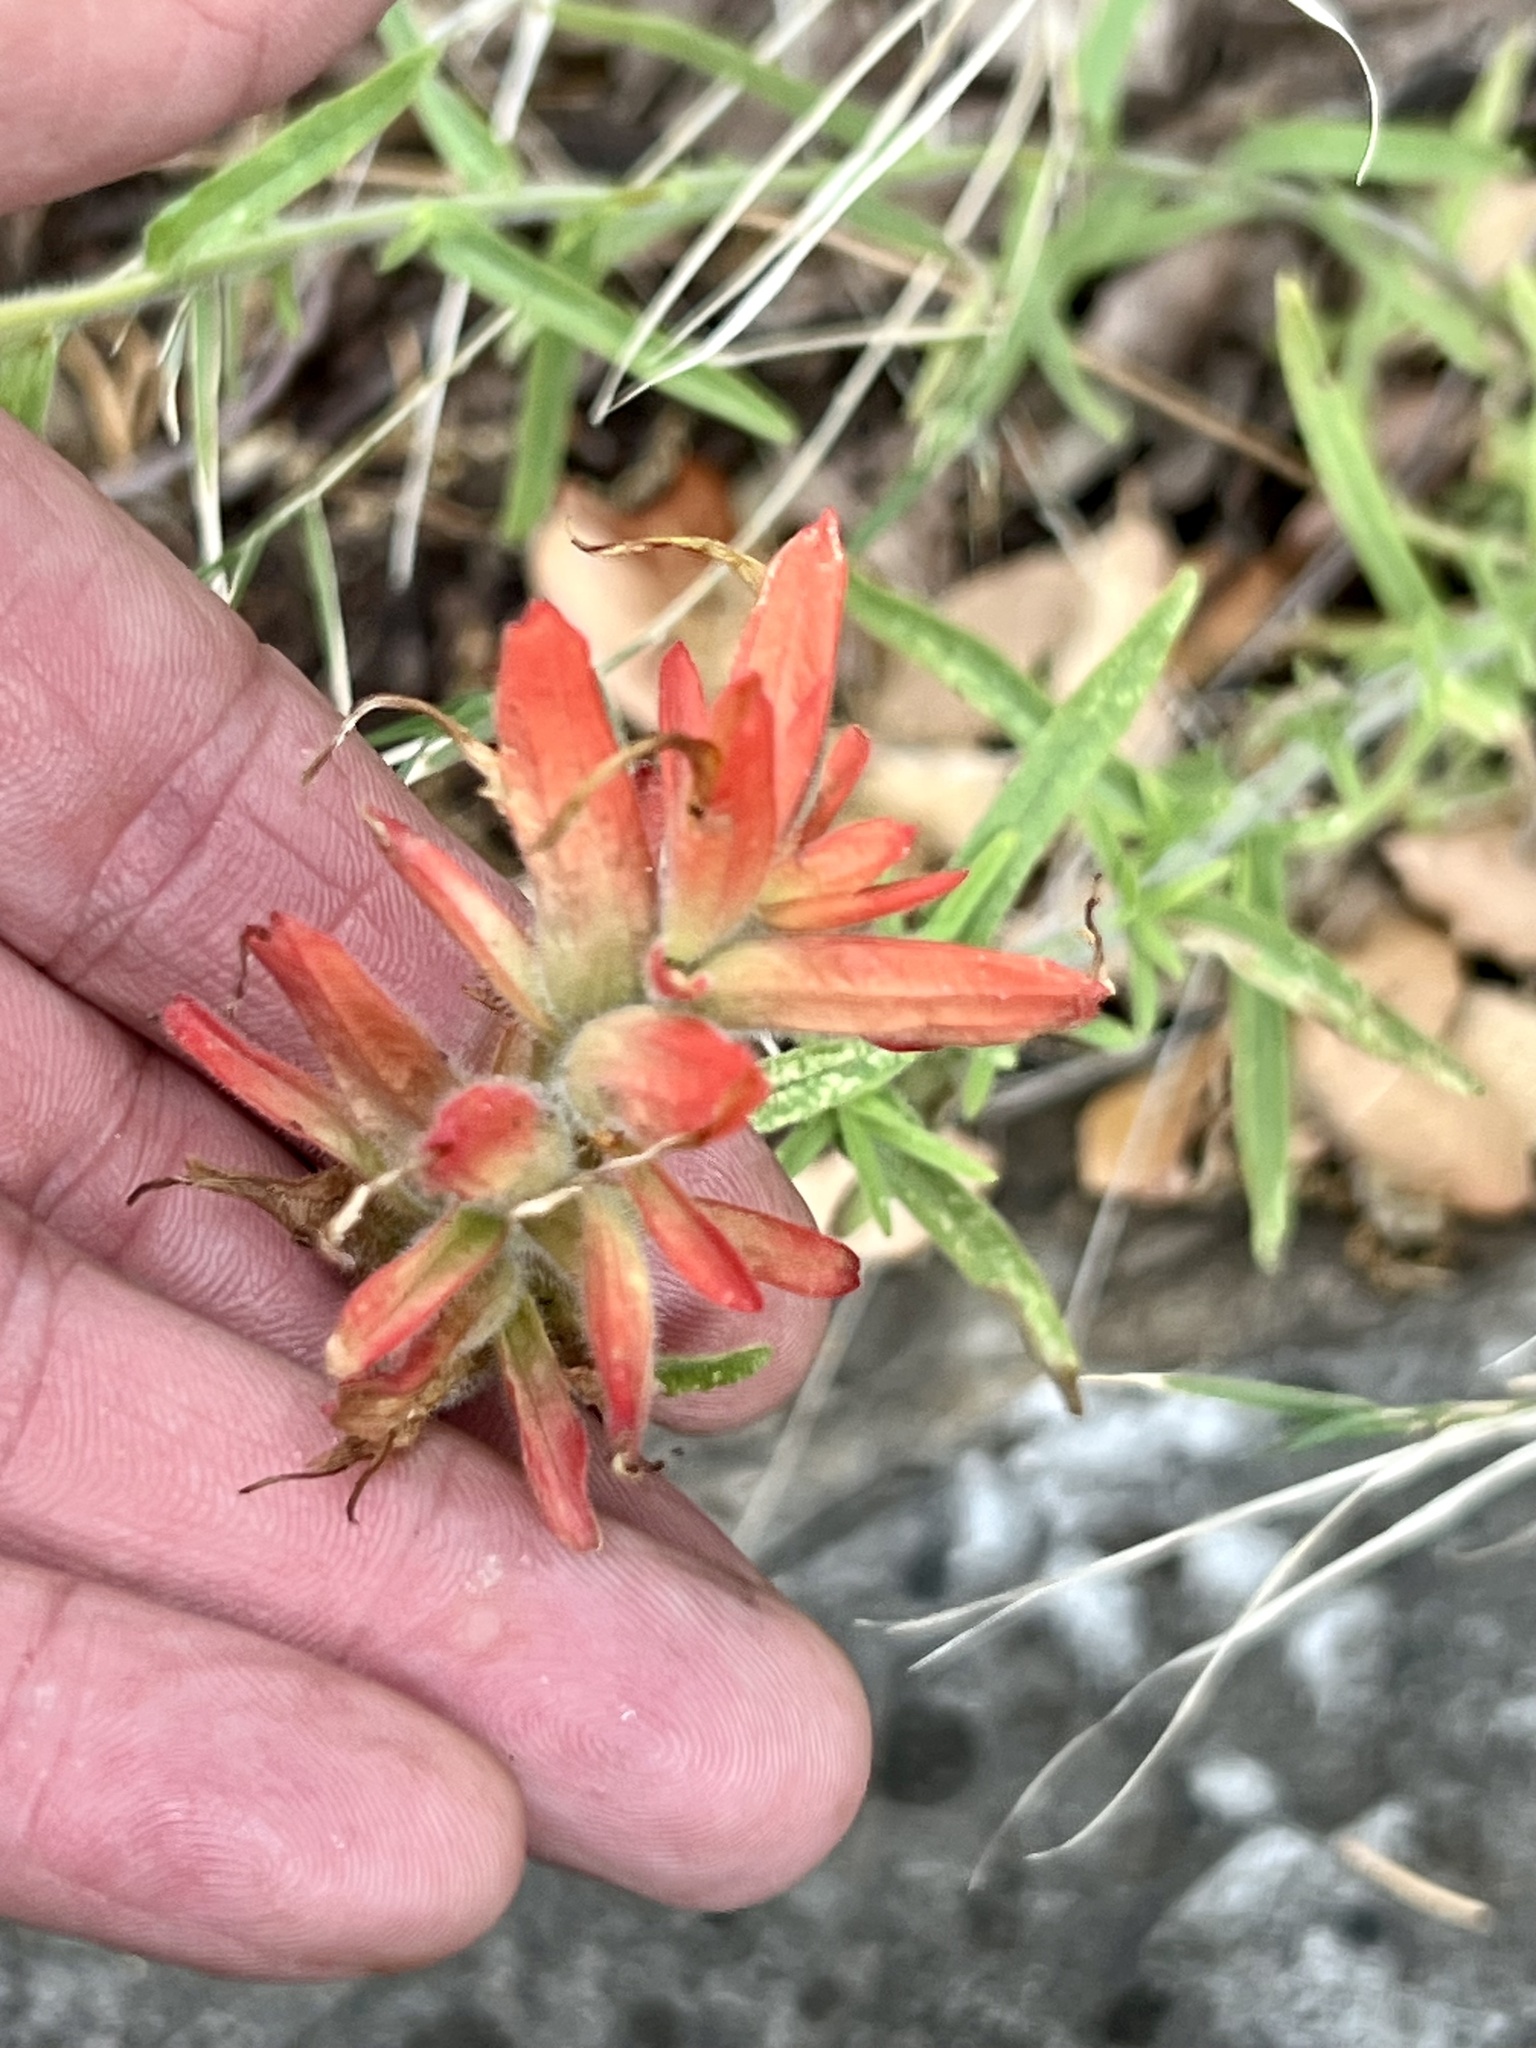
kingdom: Plantae
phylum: Tracheophyta
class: Magnoliopsida
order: Lamiales
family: Orobanchaceae
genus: Castilleja
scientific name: Castilleja tenuiflora
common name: Santa catalina indian paintbrush
